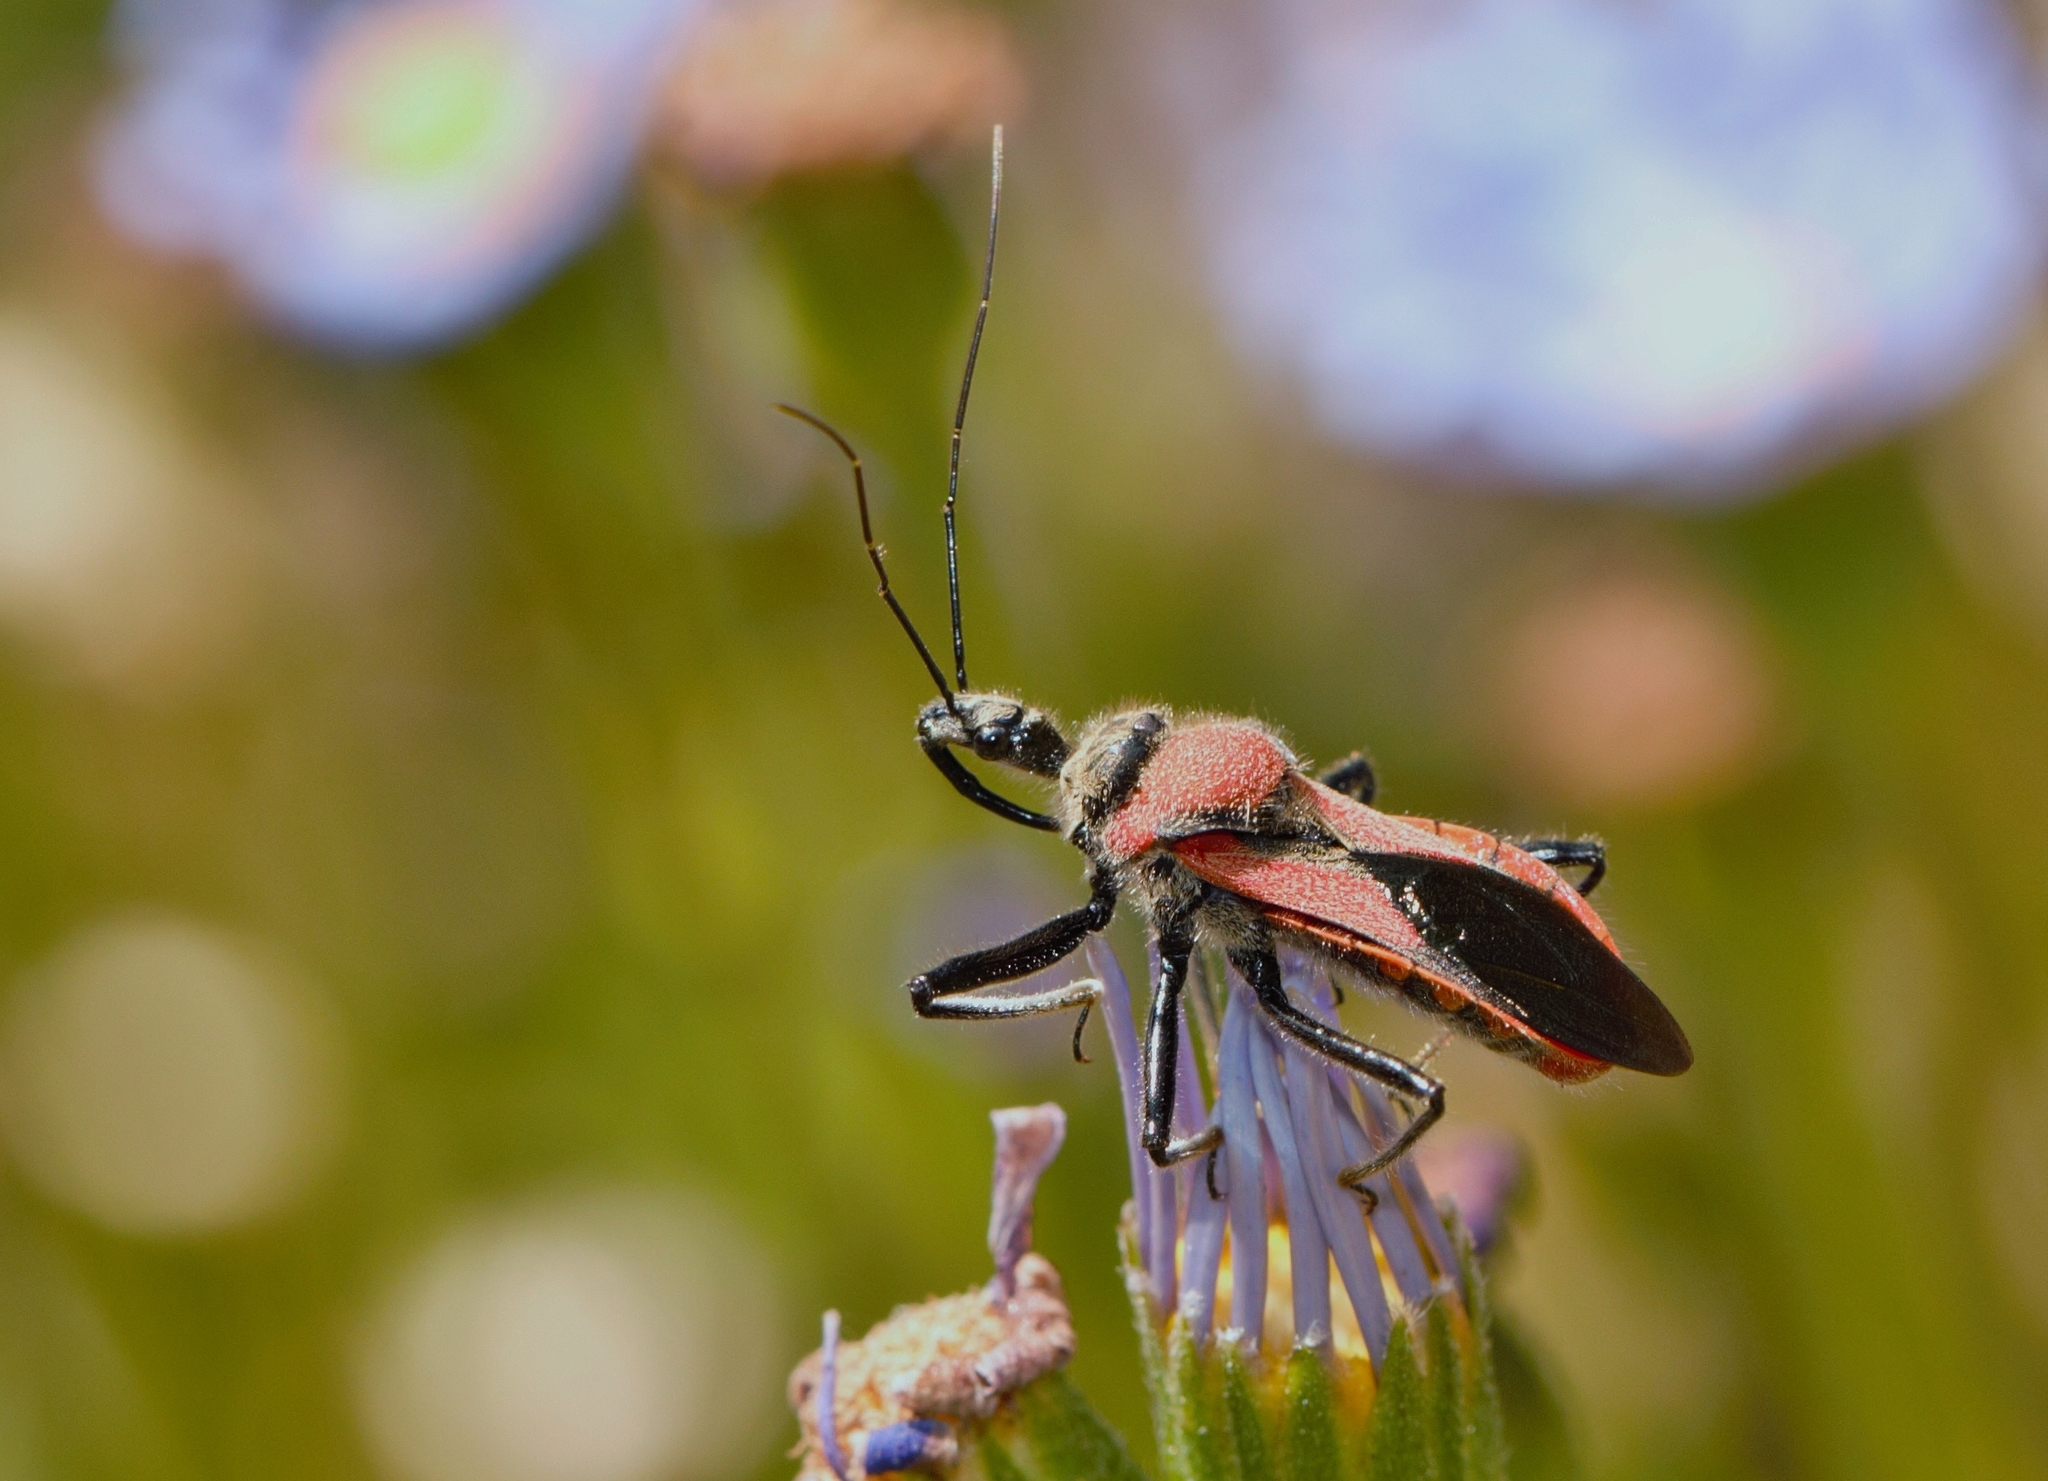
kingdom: Animalia
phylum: Arthropoda
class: Insecta
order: Hemiptera
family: Reduviidae
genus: Rhynocoris
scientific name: Rhynocoris segmentarius
